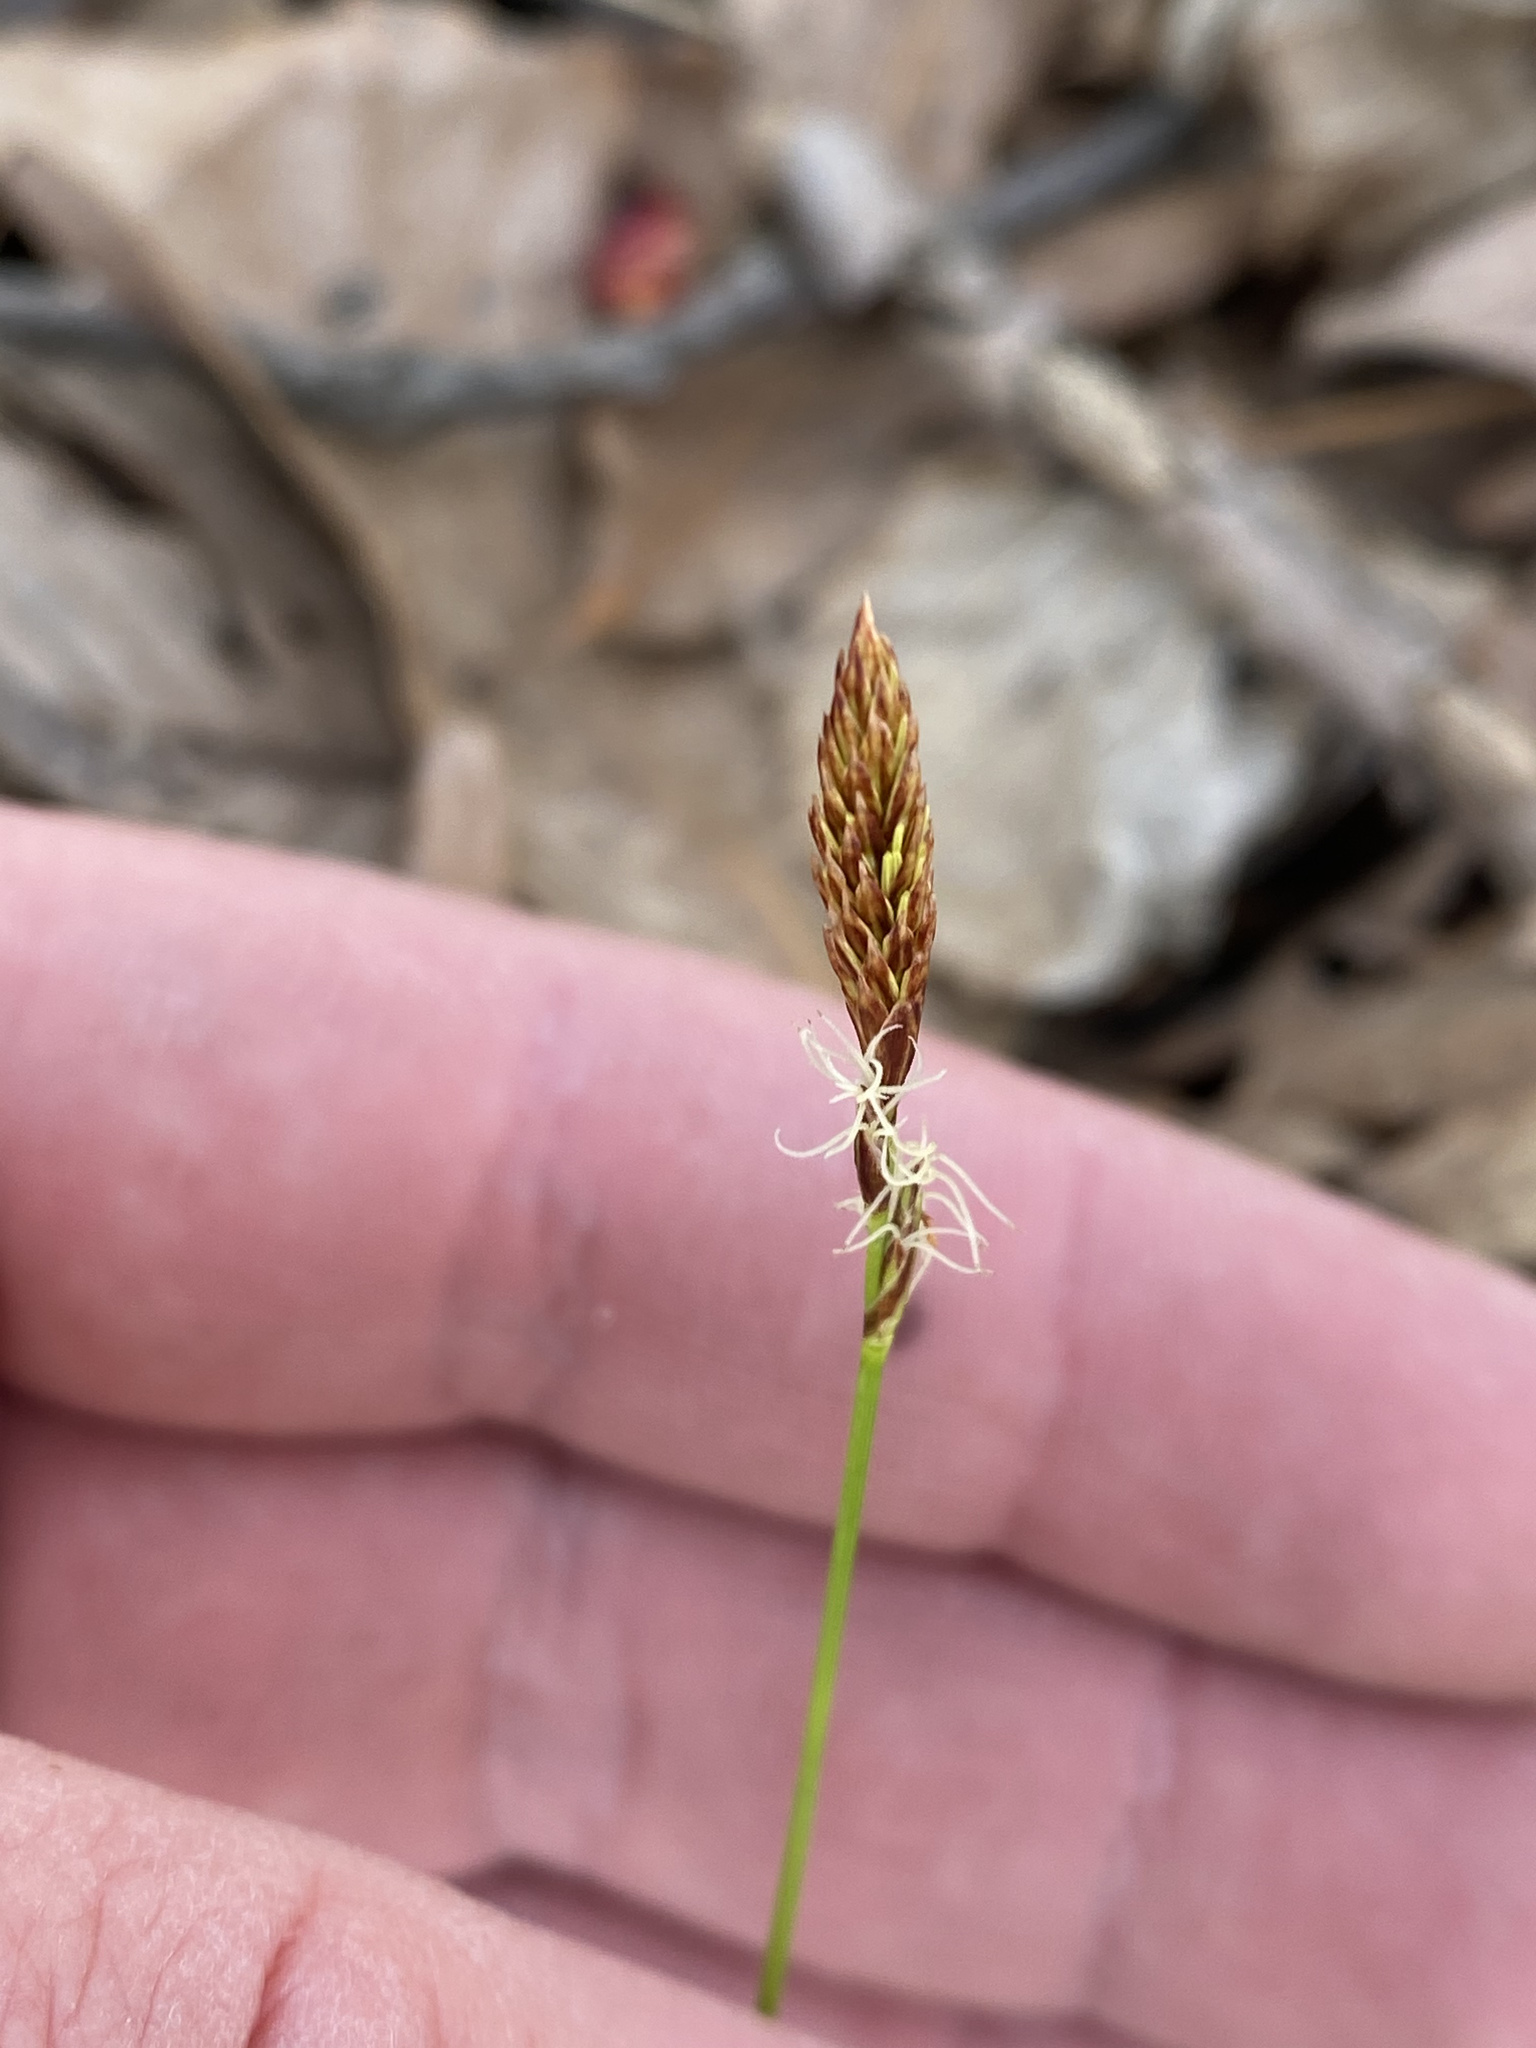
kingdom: Plantae
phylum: Tracheophyta
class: Liliopsida
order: Poales
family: Cyperaceae
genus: Carex
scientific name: Carex pensylvanica
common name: Common oak sedge
